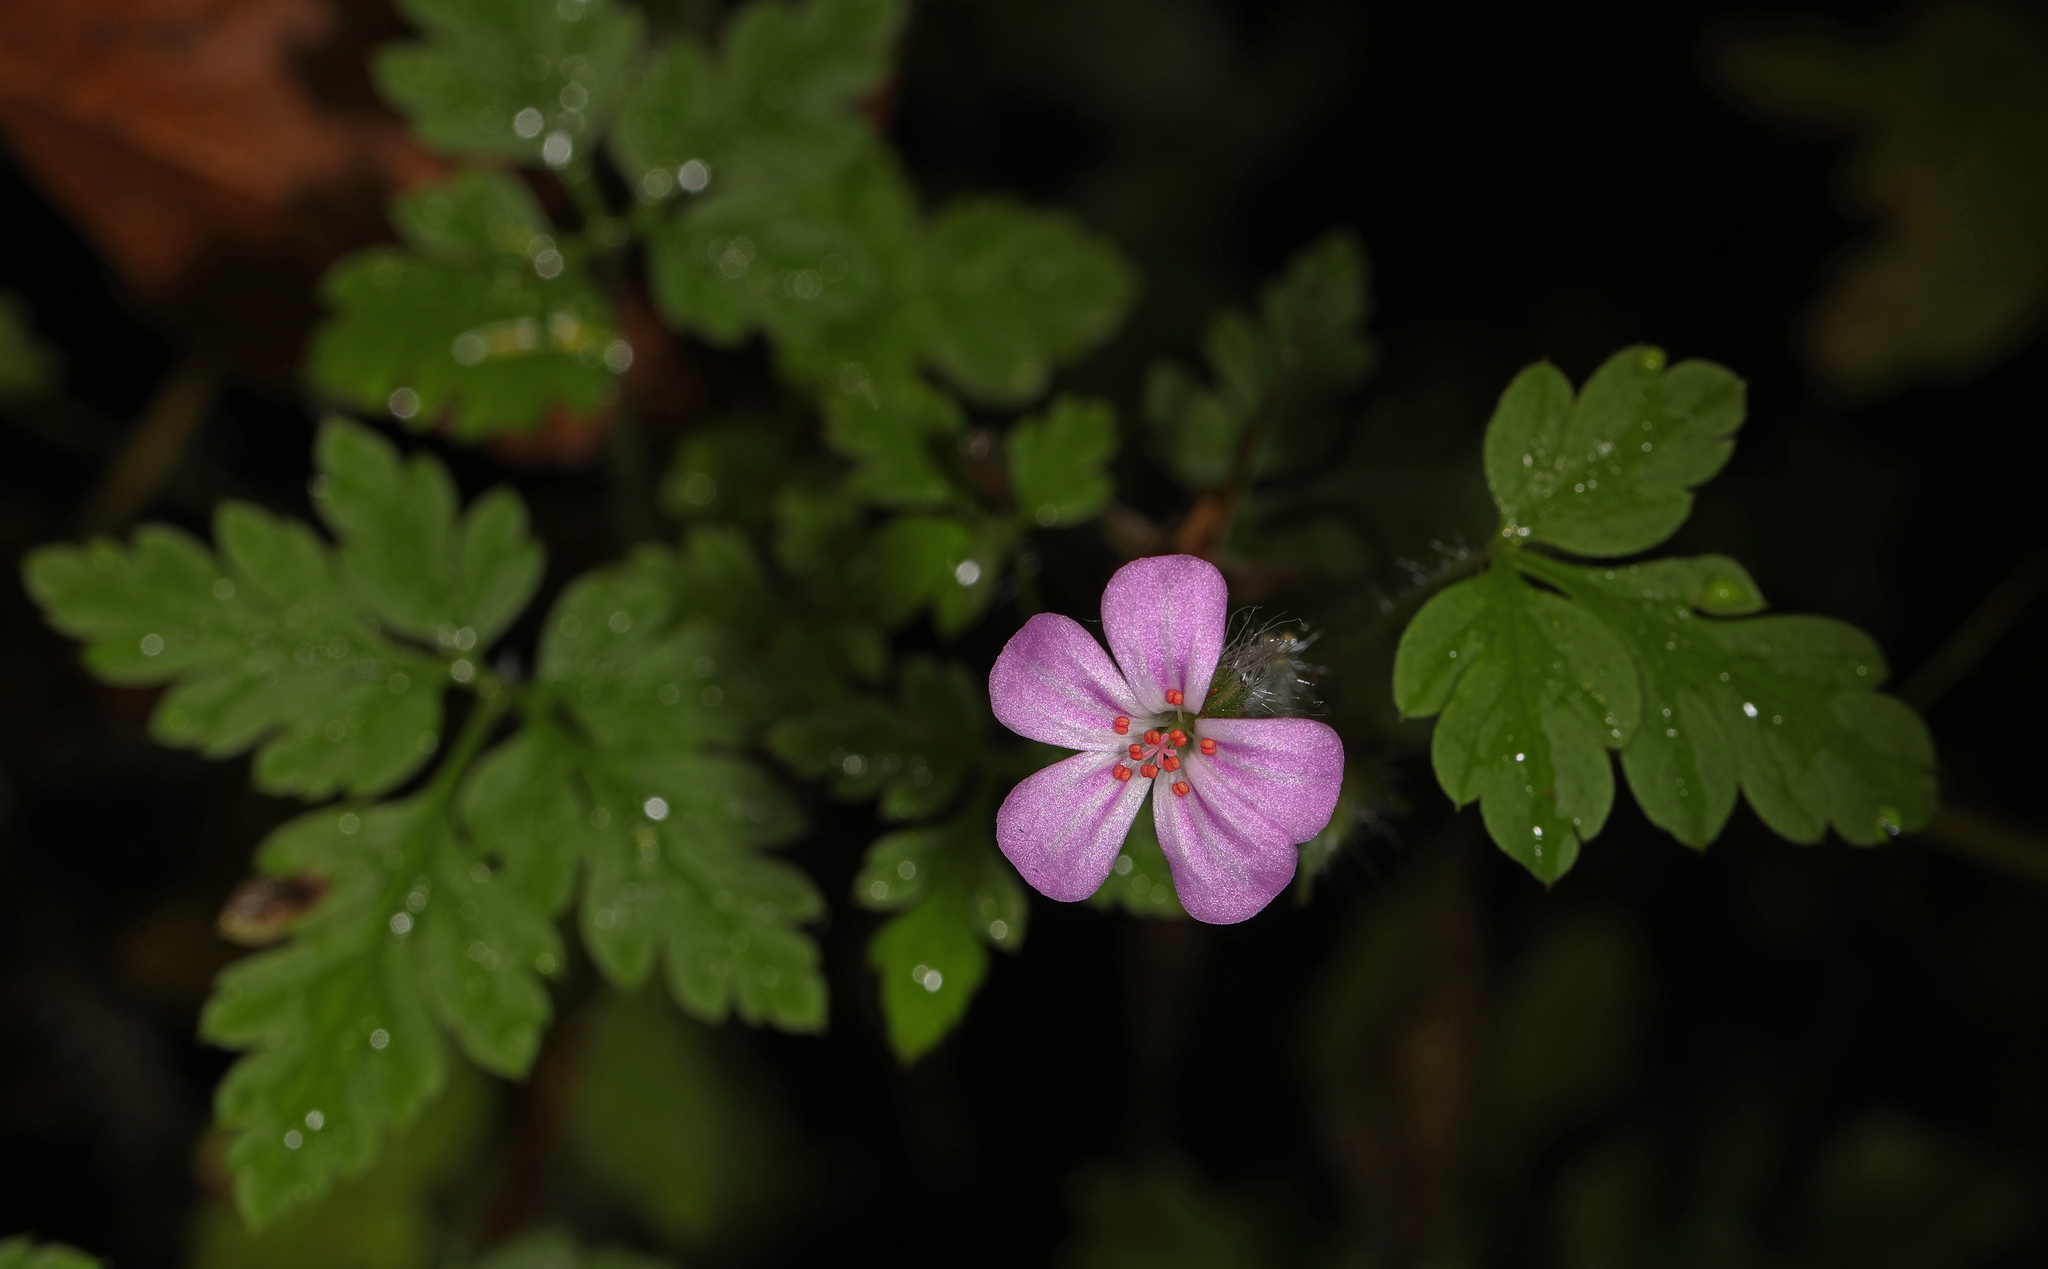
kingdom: Plantae
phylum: Tracheophyta
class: Magnoliopsida
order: Geraniales
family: Geraniaceae
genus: Geranium
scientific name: Geranium robertianum
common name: Herb-robert
